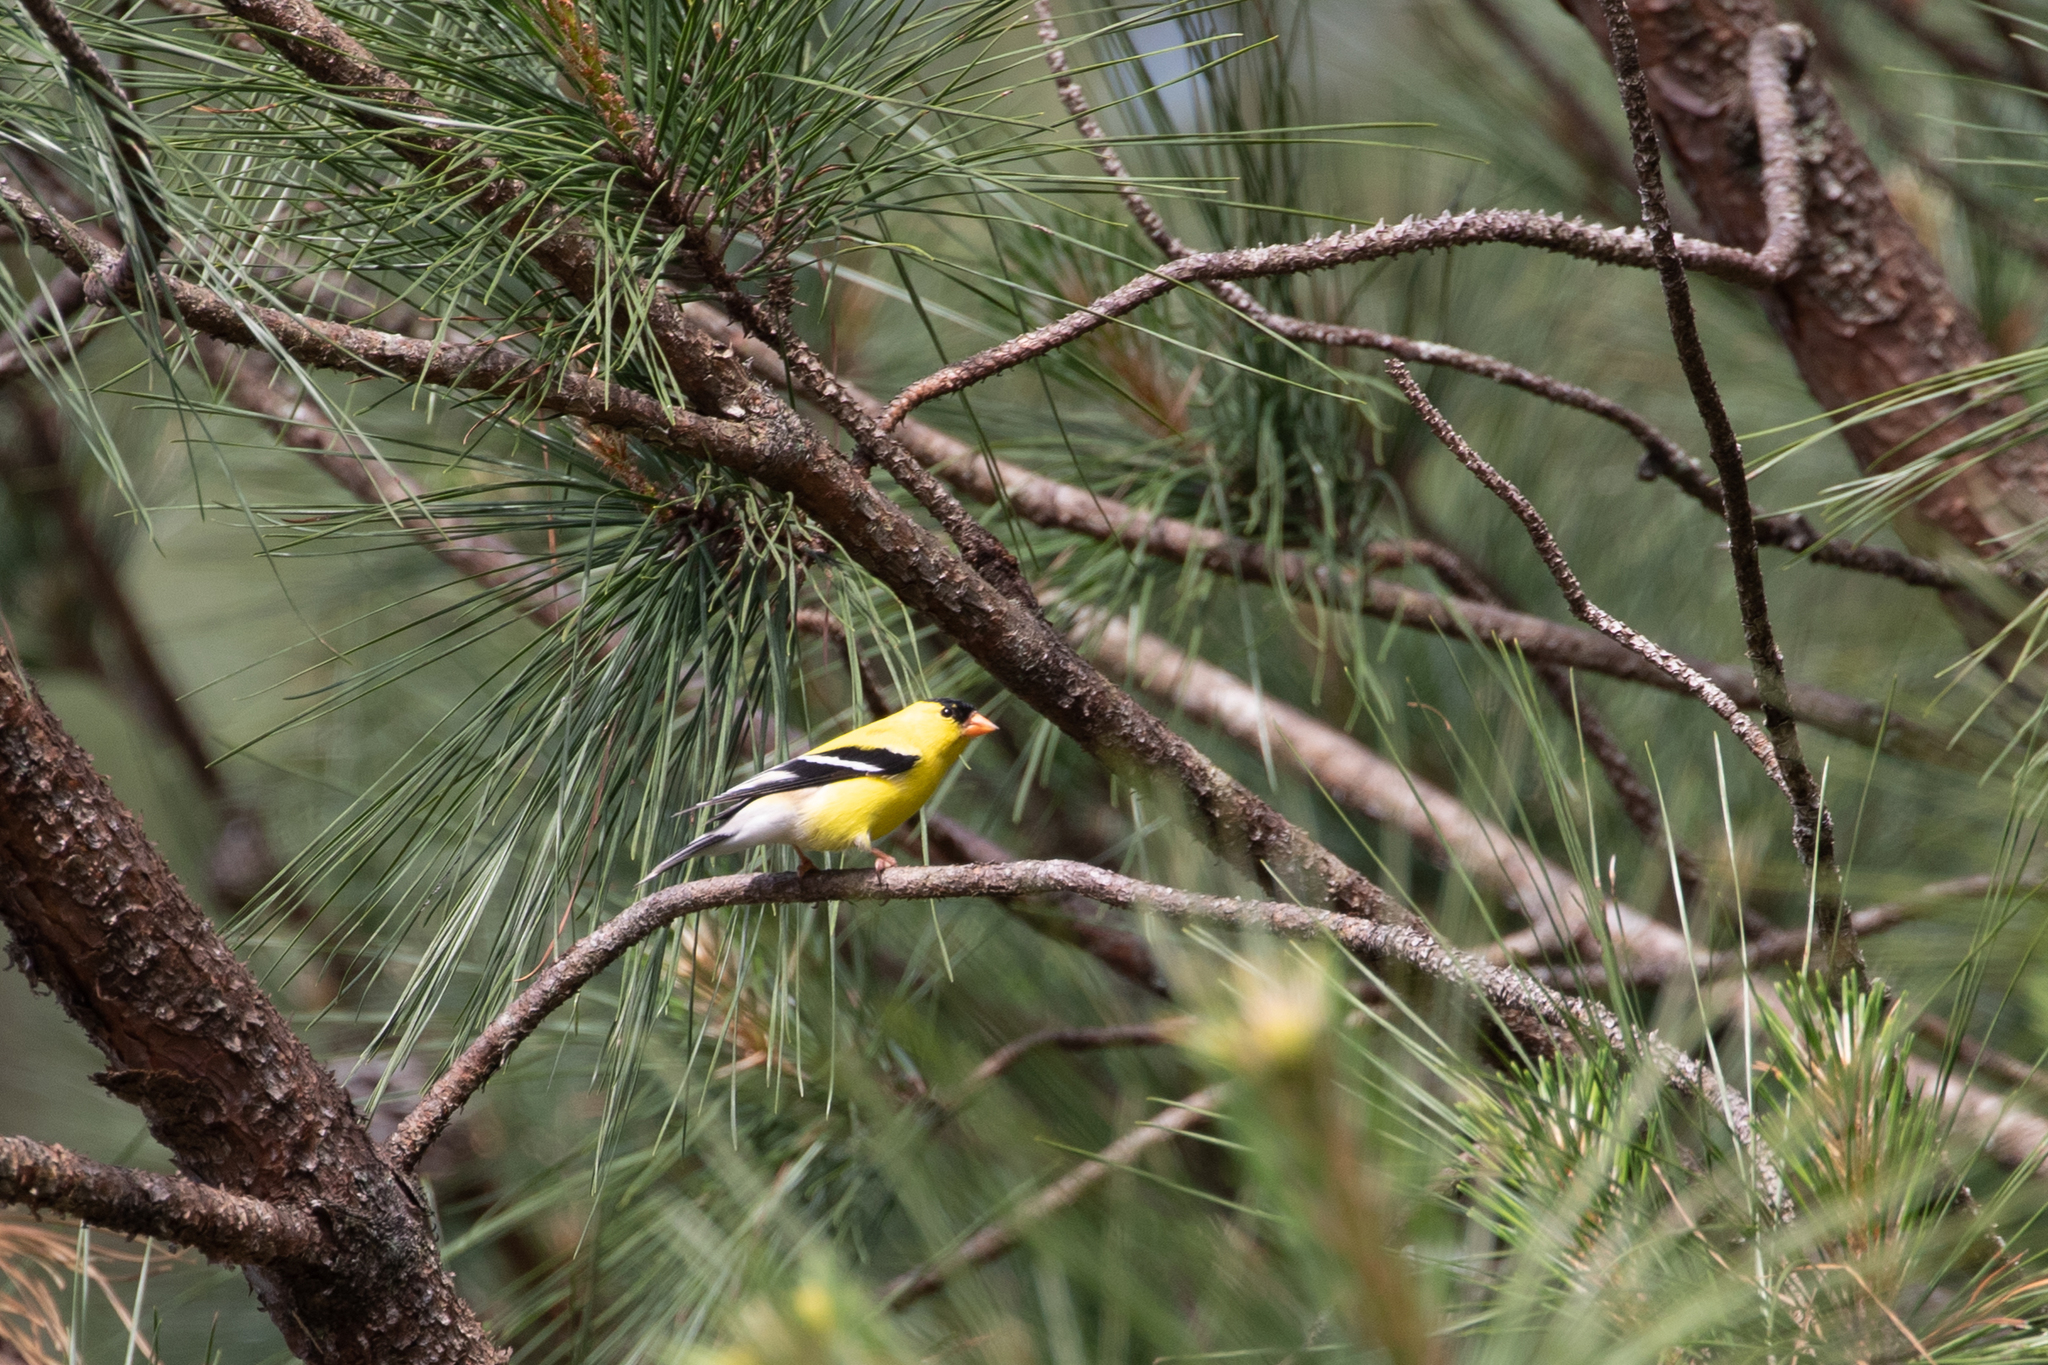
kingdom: Animalia
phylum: Chordata
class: Aves
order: Passeriformes
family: Fringillidae
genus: Spinus
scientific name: Spinus tristis
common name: American goldfinch
